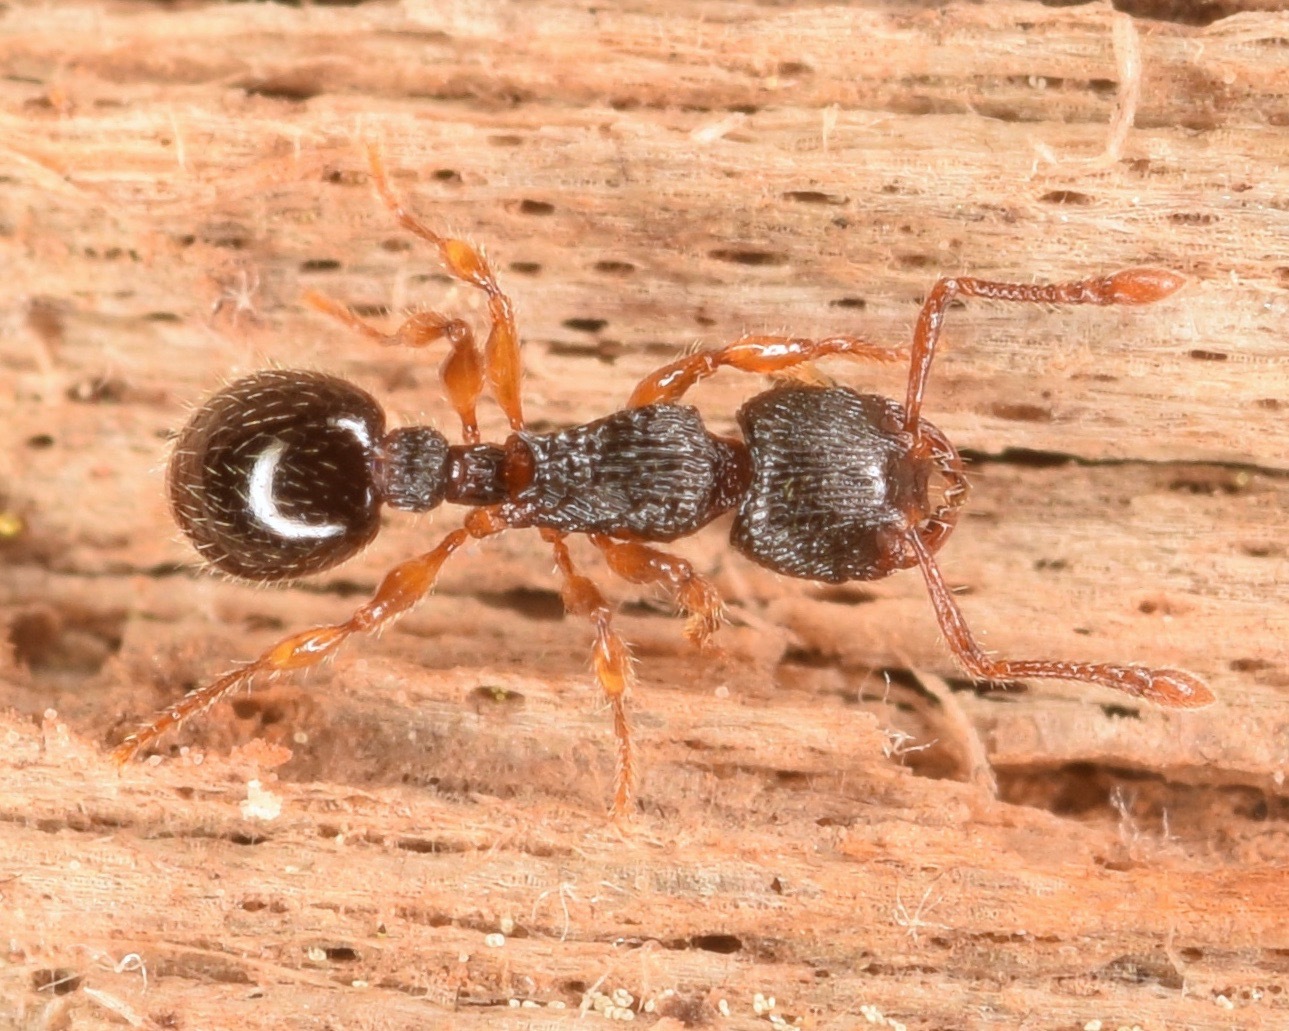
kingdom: Animalia
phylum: Arthropoda
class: Insecta
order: Hymenoptera
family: Formicidae
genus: Myrmecina
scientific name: Myrmecina americana
